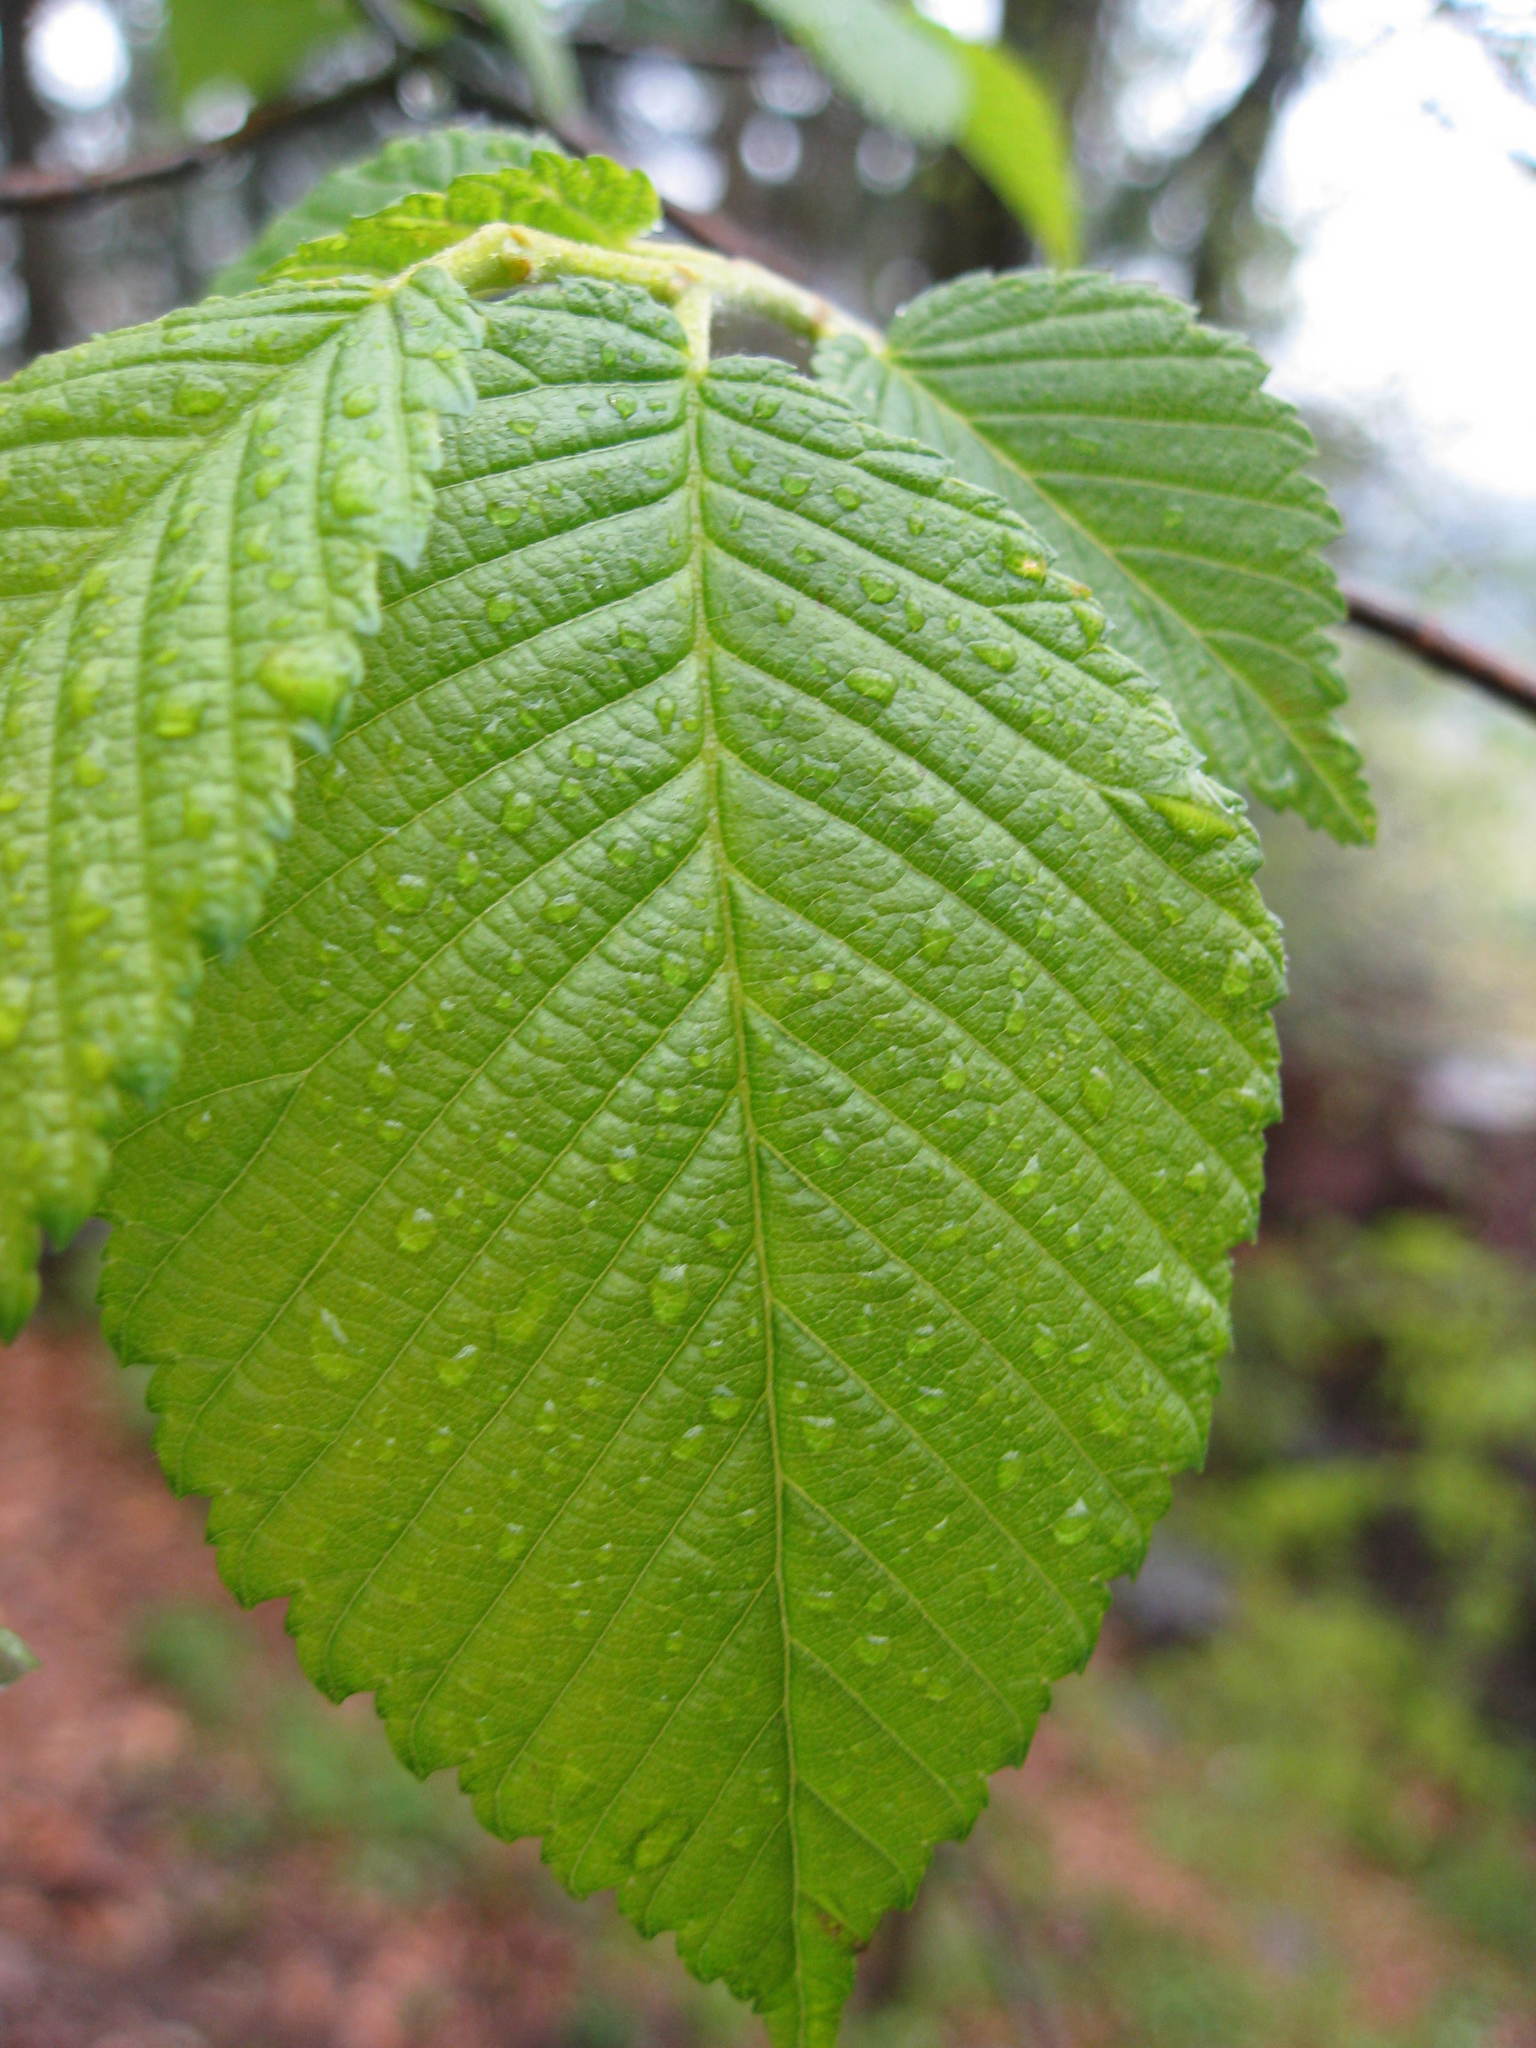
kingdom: Plantae
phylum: Tracheophyta
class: Magnoliopsida
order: Rosales
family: Ulmaceae
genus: Ulmus
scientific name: Ulmus rubra
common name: Slippery elm
